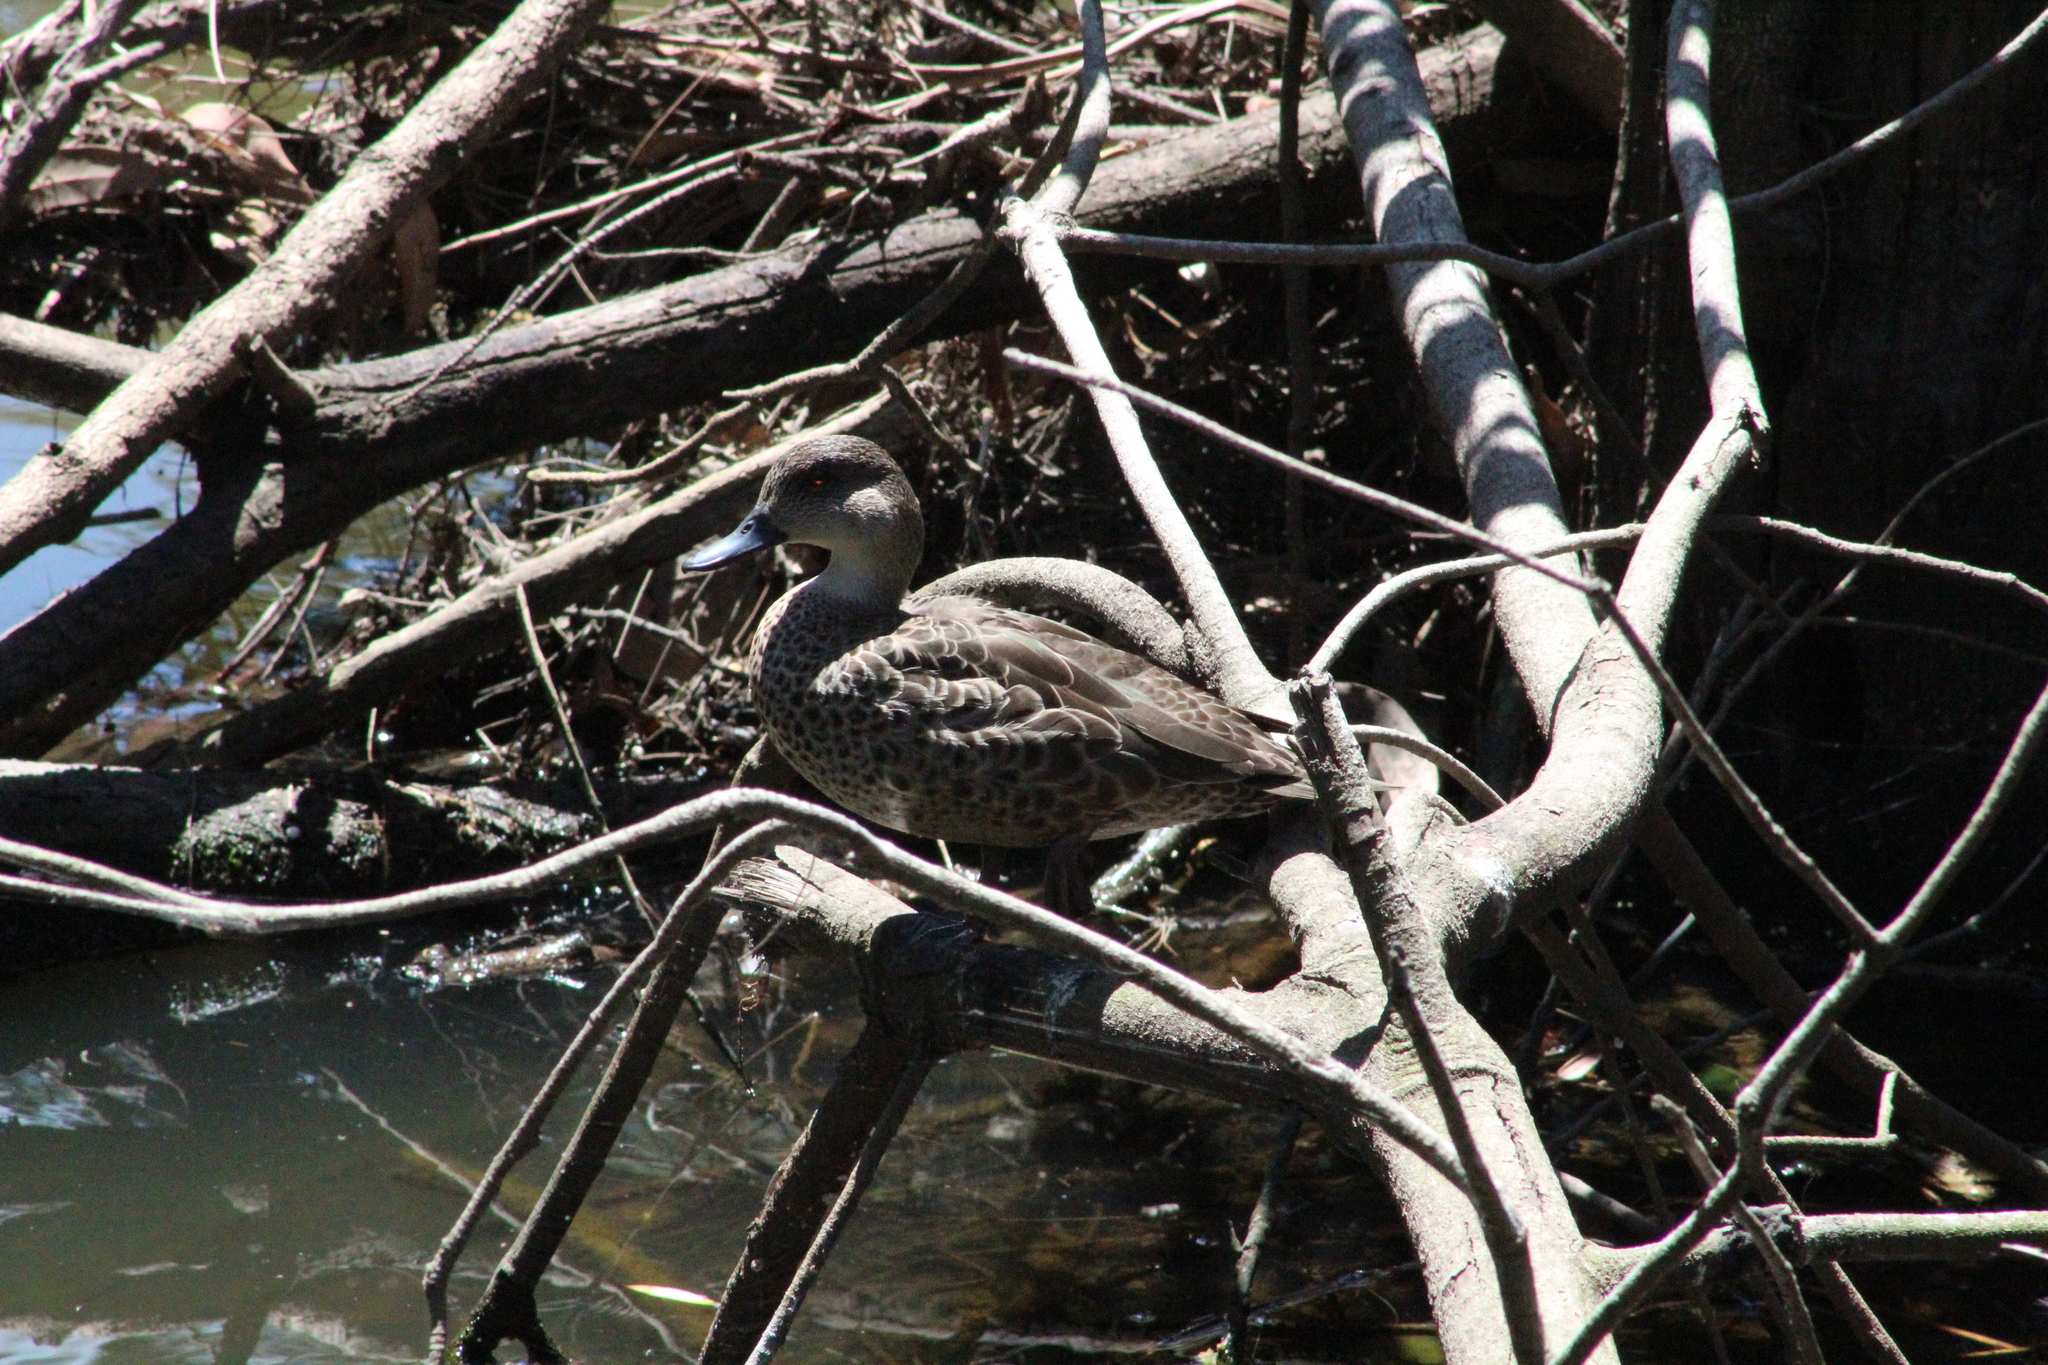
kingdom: Animalia
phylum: Chordata
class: Aves
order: Anseriformes
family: Anatidae
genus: Anas
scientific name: Anas gracilis
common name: Grey teal
